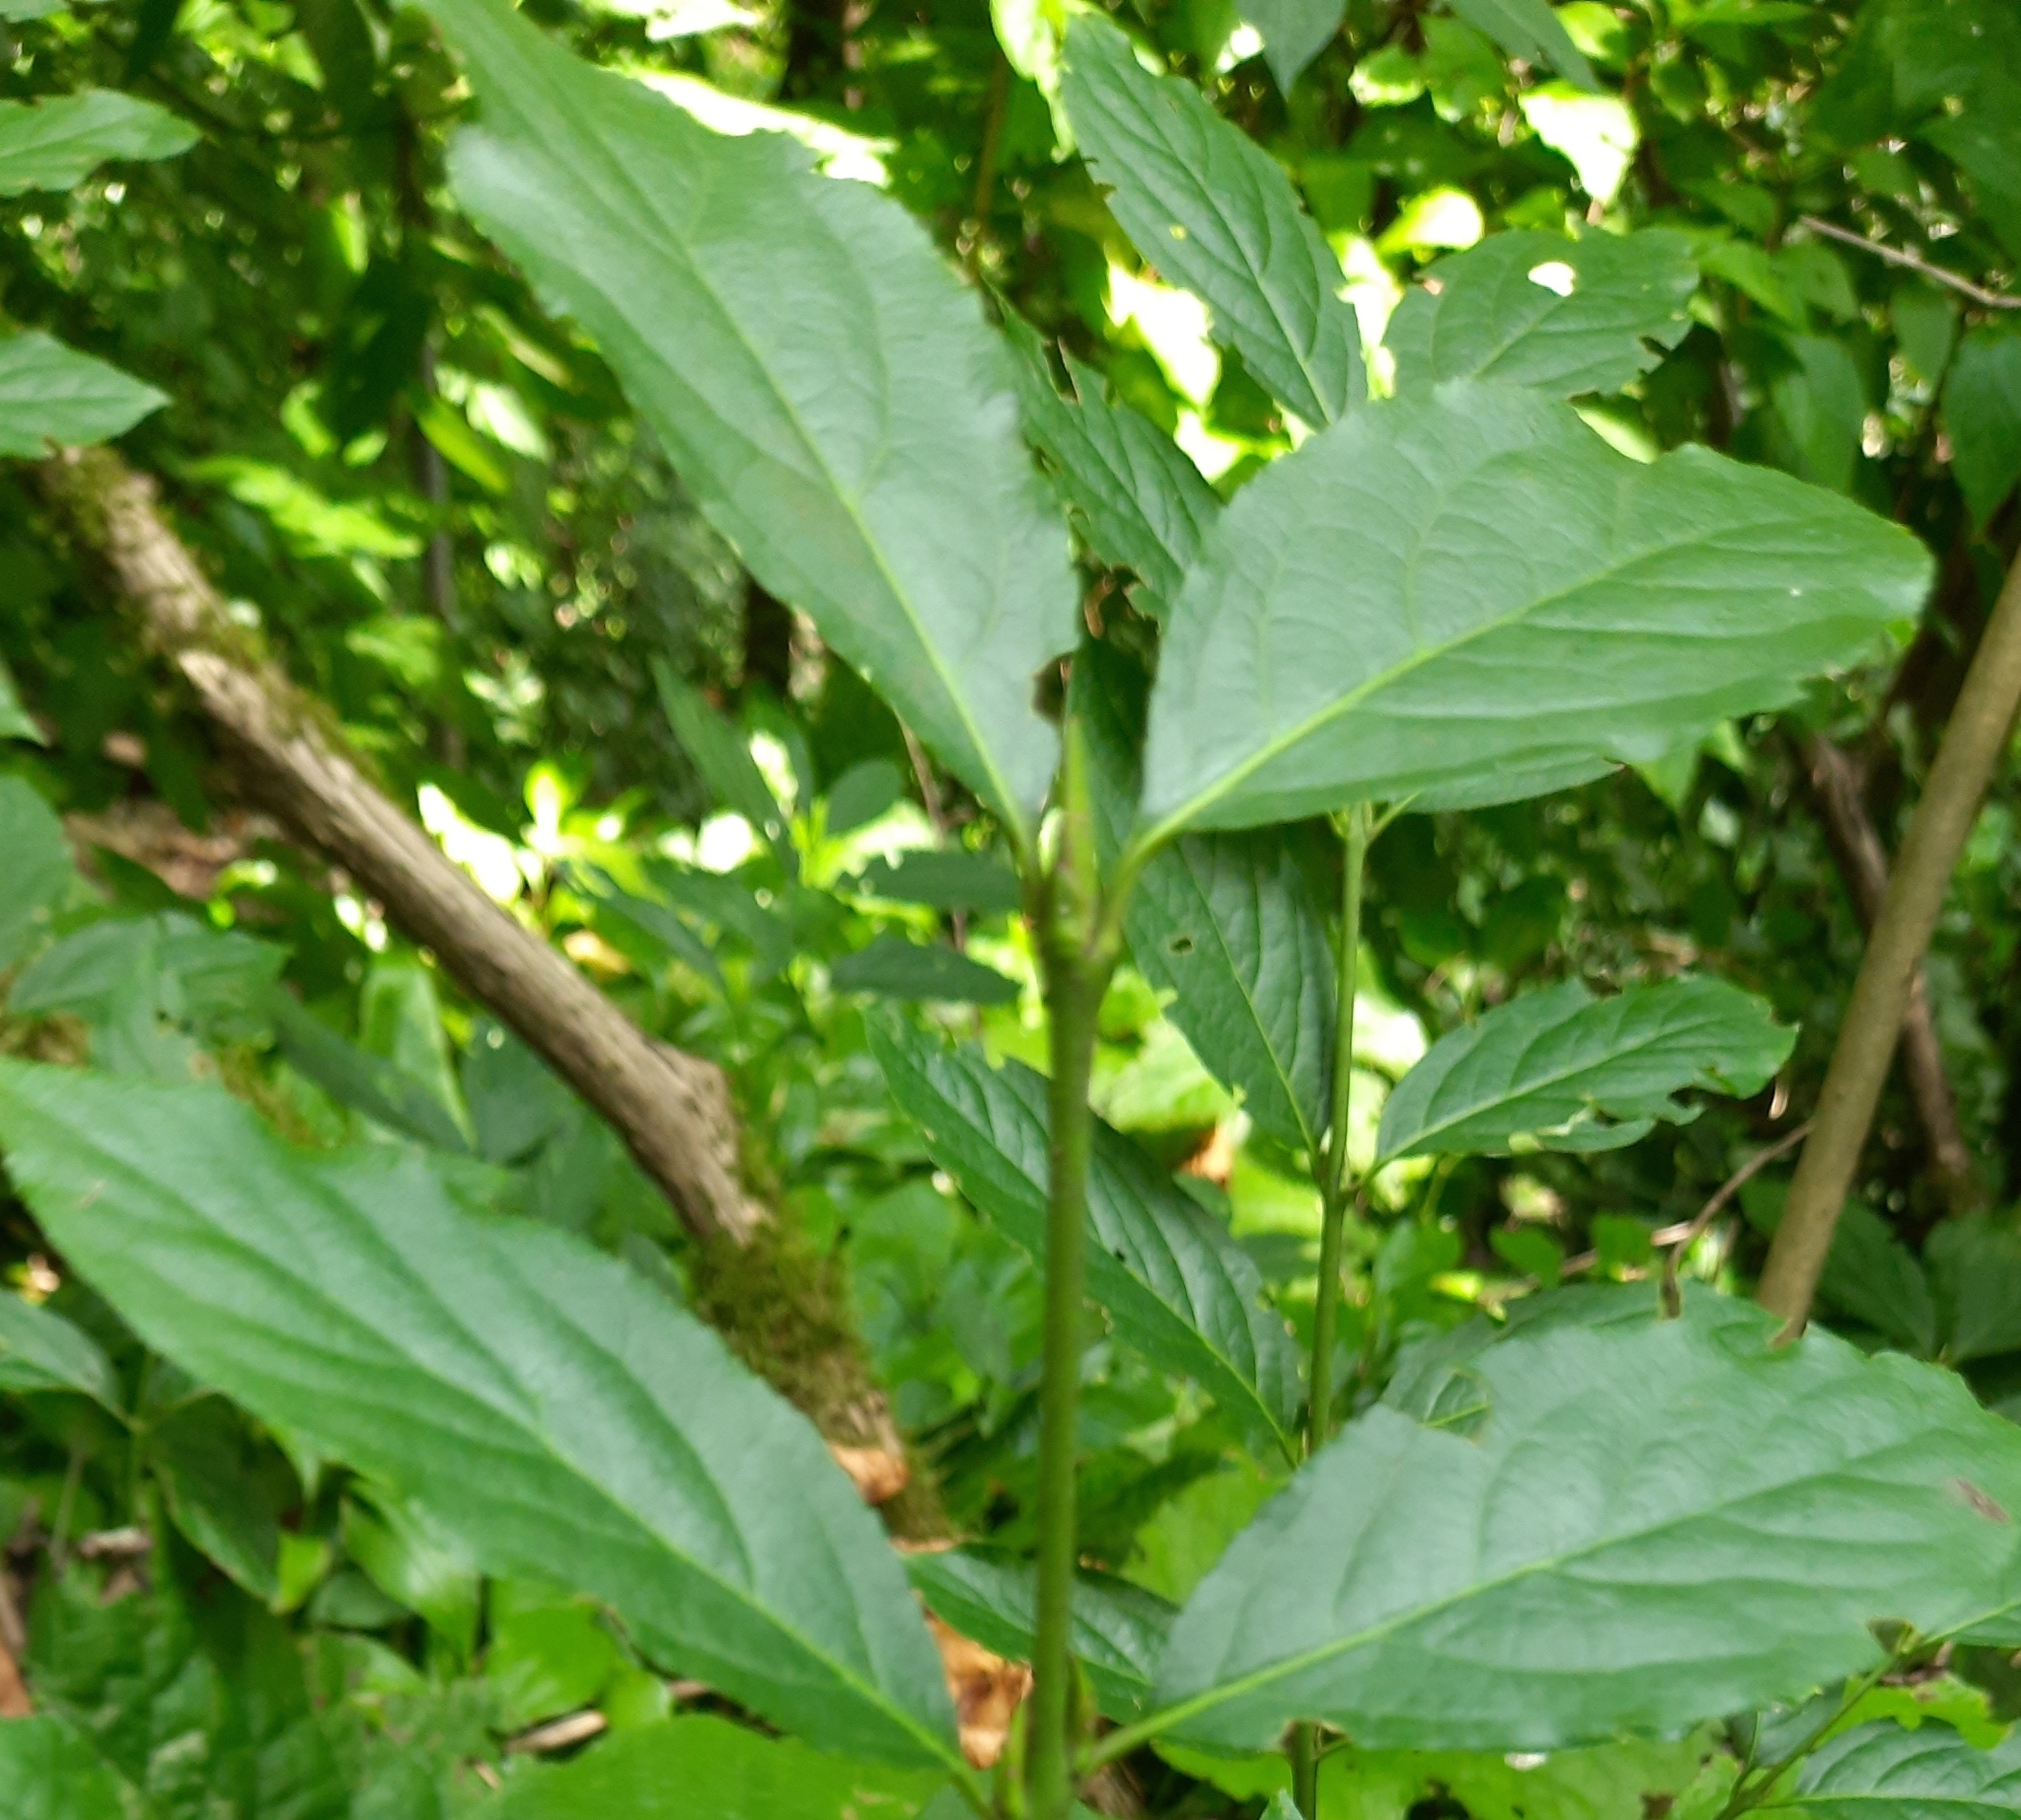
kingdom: Plantae
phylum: Tracheophyta
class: Magnoliopsida
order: Celastrales
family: Celastraceae
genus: Euonymus
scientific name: Euonymus latifolius
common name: Large-leaved spindle
